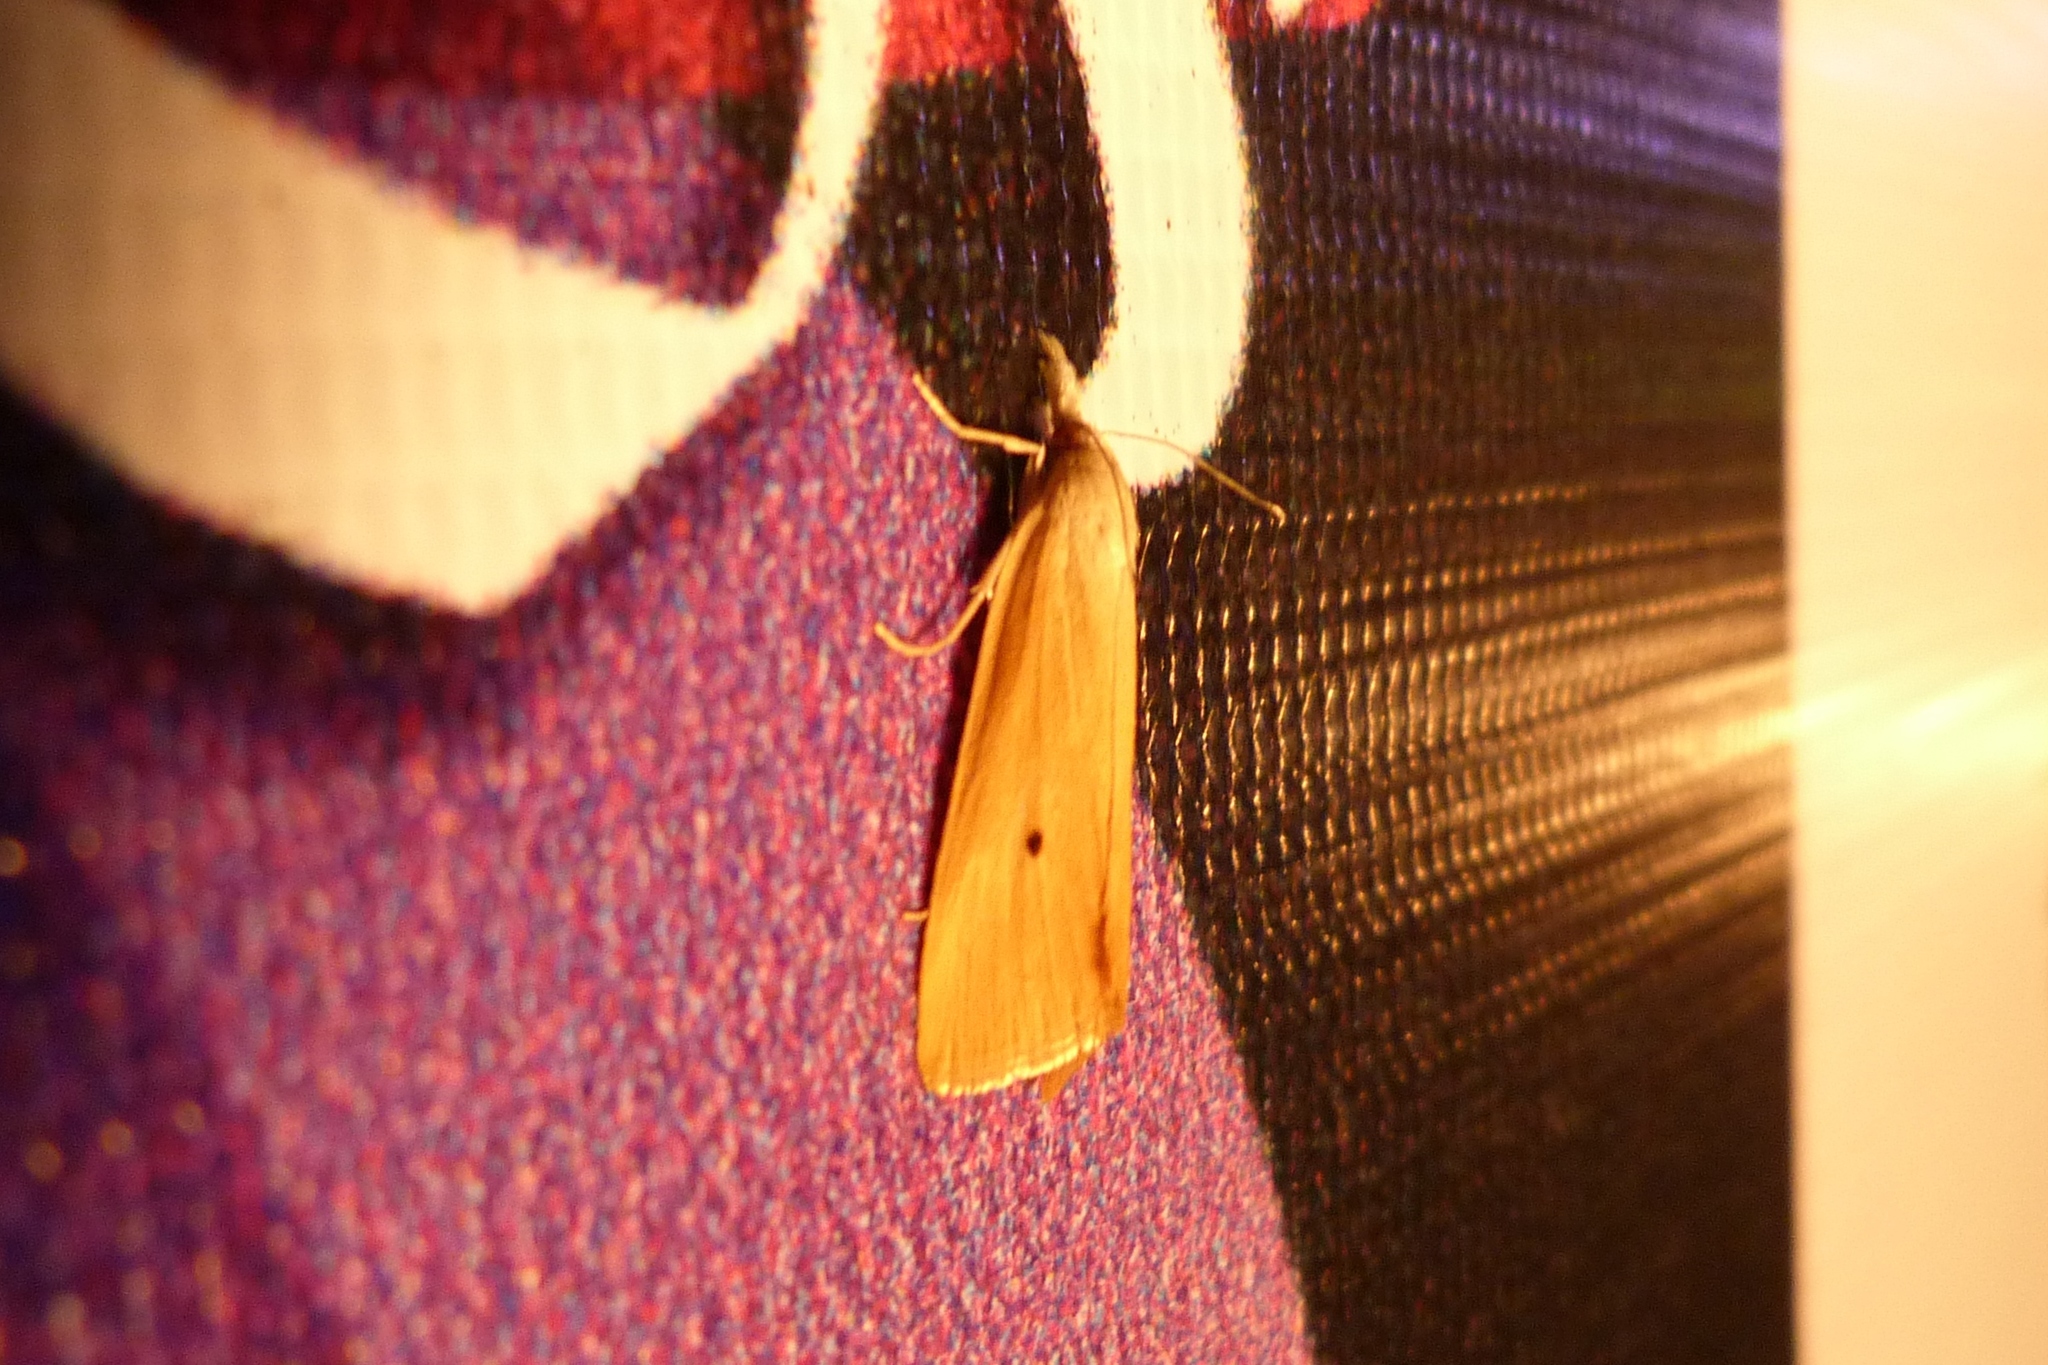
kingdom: Animalia
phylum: Arthropoda
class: Insecta
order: Lepidoptera
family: Crambidae
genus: Scirpophaga
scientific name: Scirpophaga incertulas
